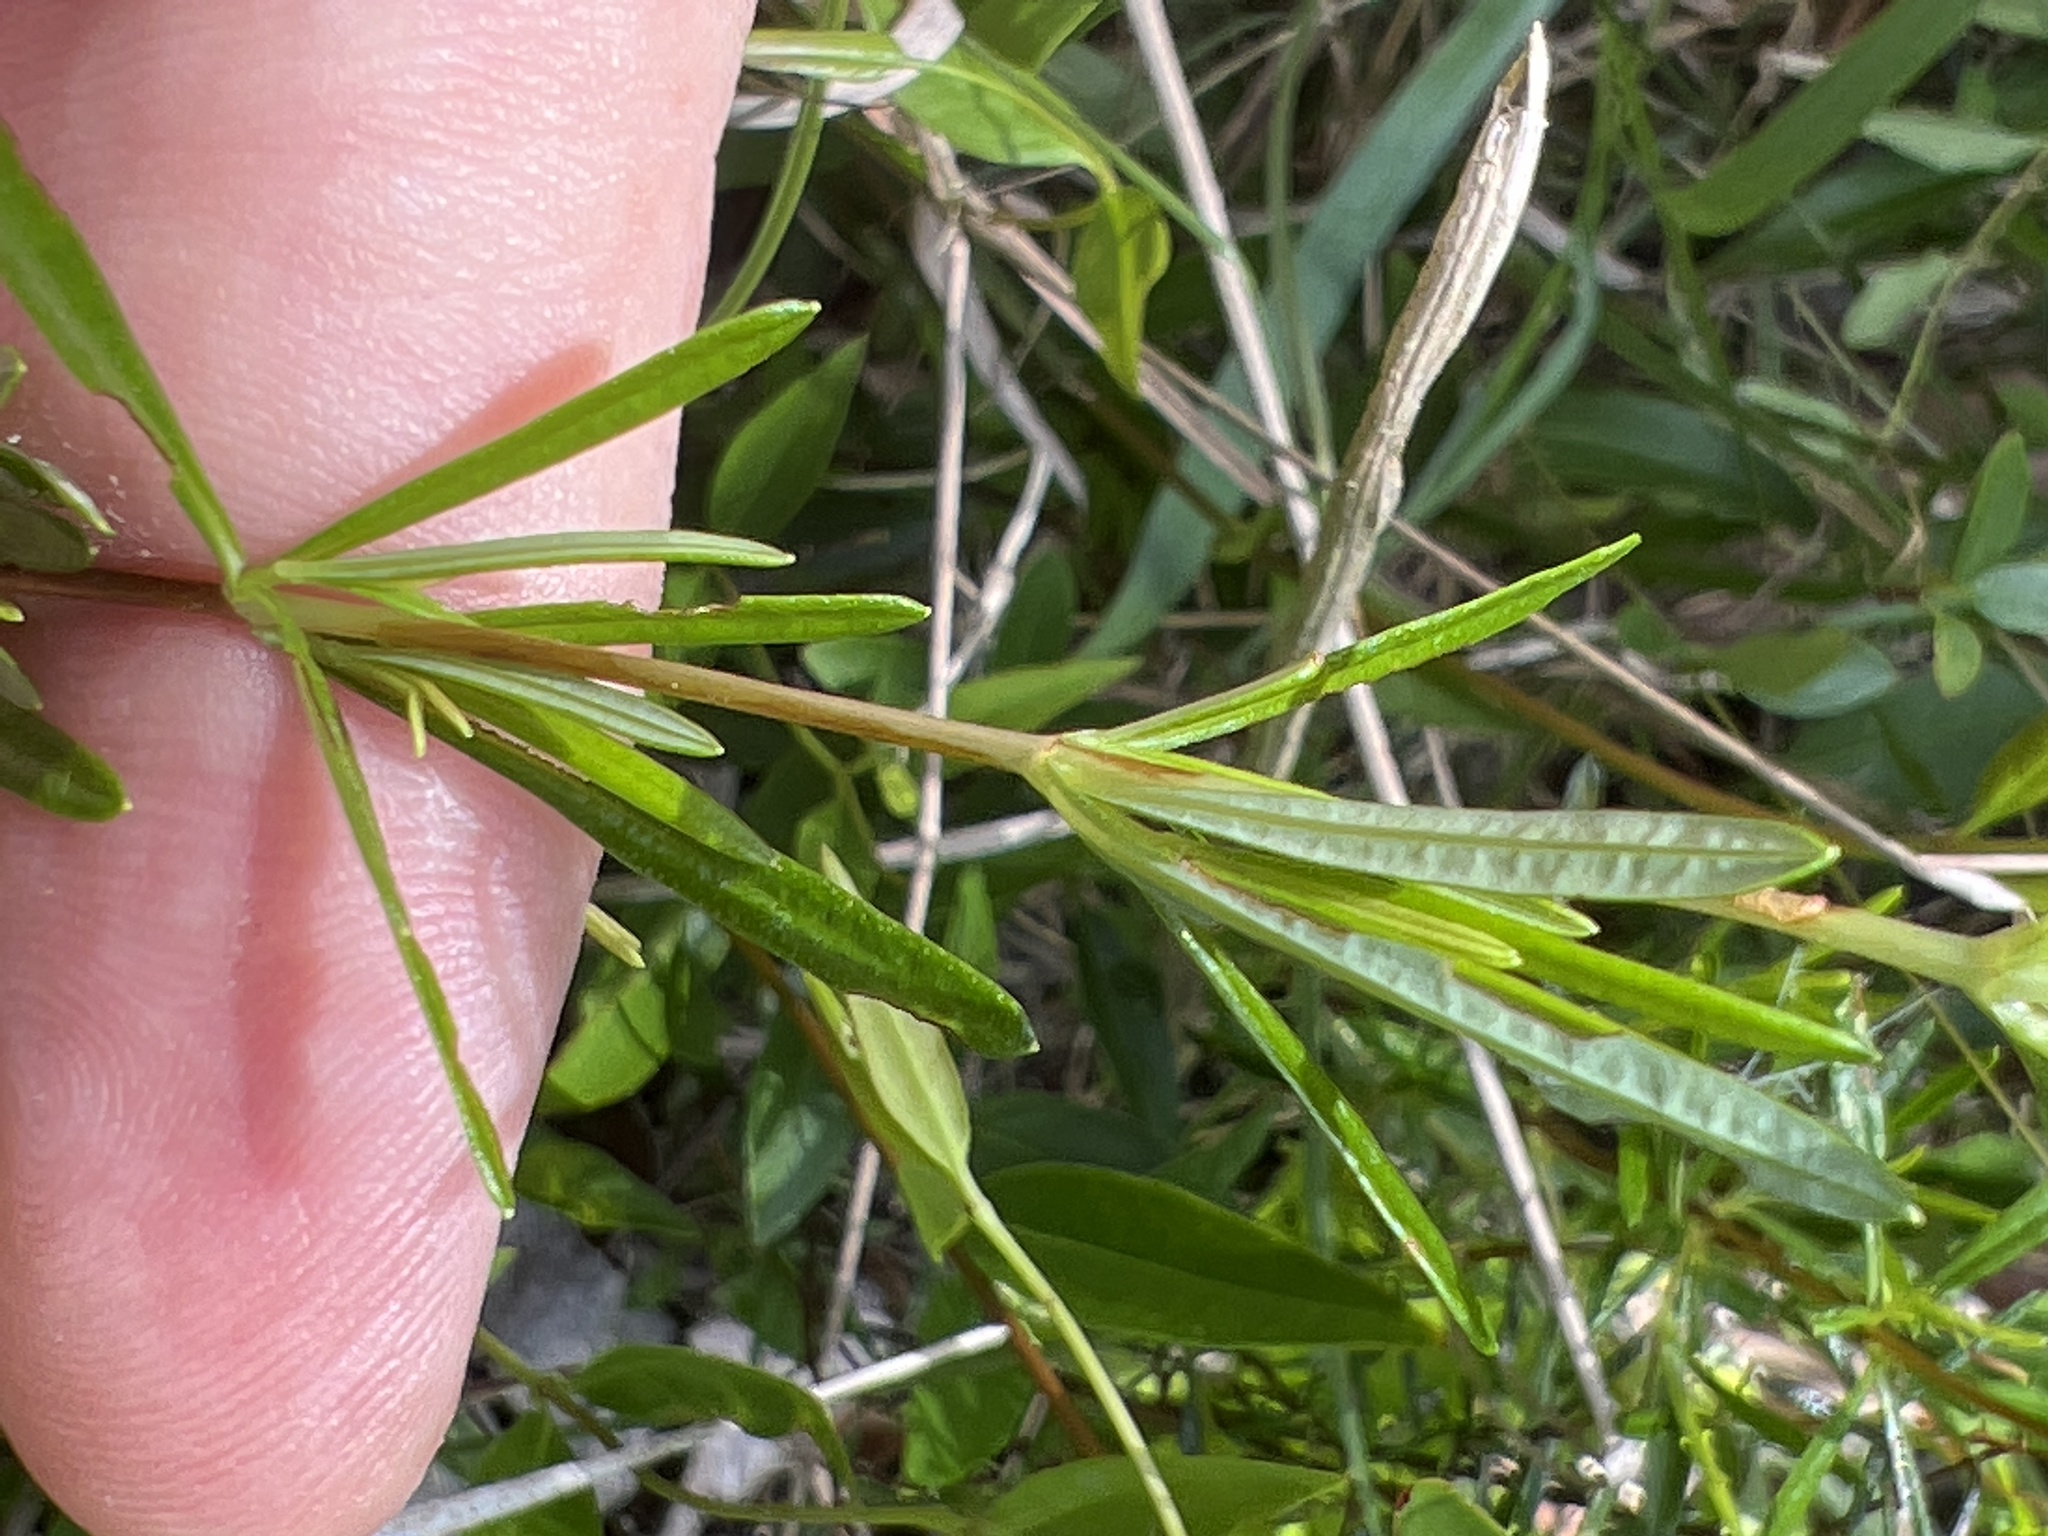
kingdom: Plantae
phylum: Tracheophyta
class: Magnoliopsida
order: Malpighiales
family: Hypericaceae
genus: Hypericum
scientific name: Hypericum galioides
